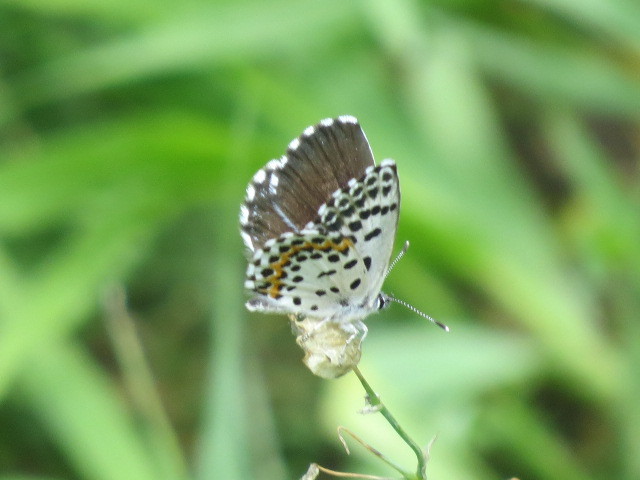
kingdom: Animalia
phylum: Arthropoda
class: Insecta
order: Lepidoptera
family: Lycaenidae
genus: Scolitantides
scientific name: Scolitantides orion
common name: Chequered blue
